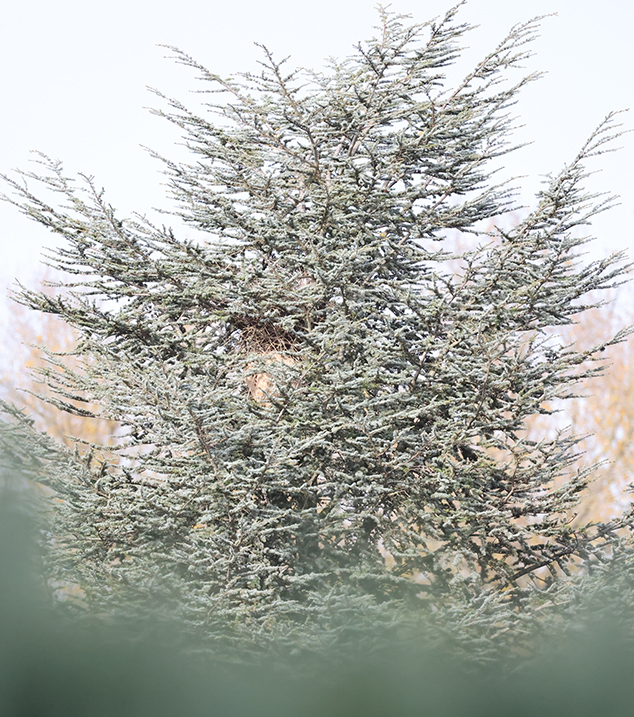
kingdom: Animalia
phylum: Arthropoda
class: Insecta
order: Hymenoptera
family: Vespidae
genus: Vespa
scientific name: Vespa velutina
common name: Asian hornet
